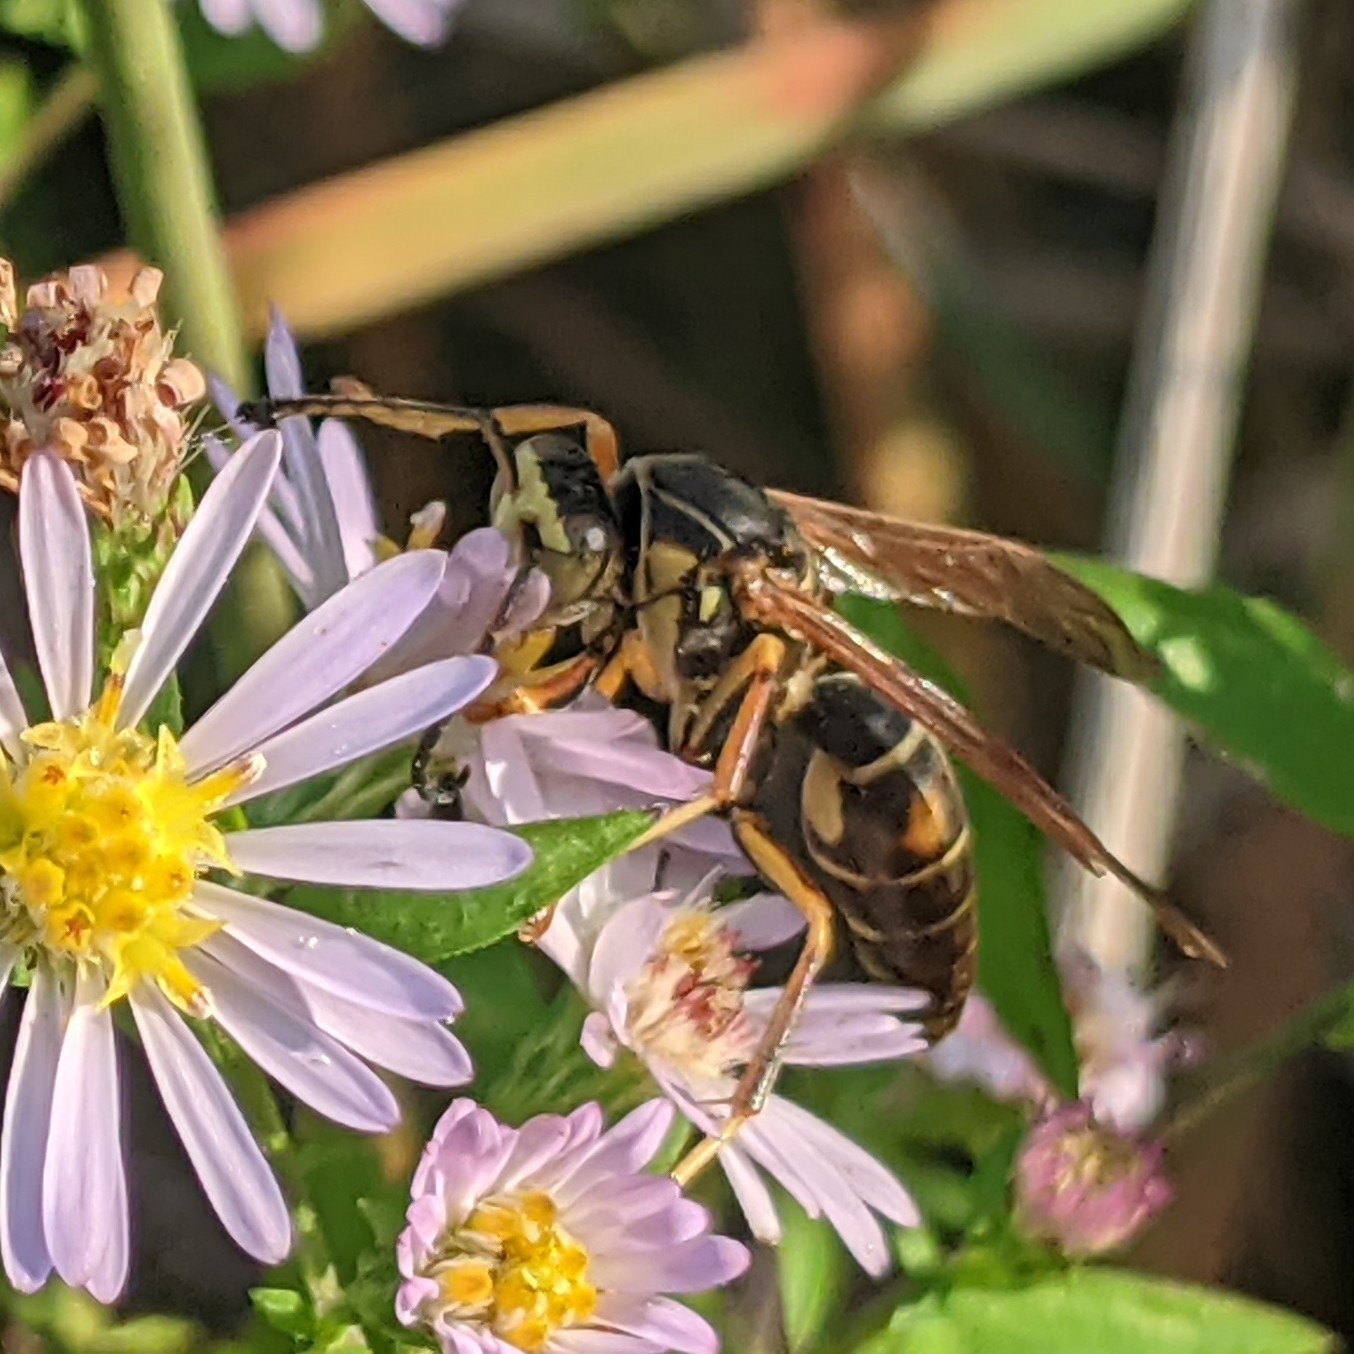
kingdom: Animalia
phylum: Arthropoda
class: Insecta
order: Hymenoptera
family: Eumenidae
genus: Polistes
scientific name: Polistes fuscatus
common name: Dark paper wasp
